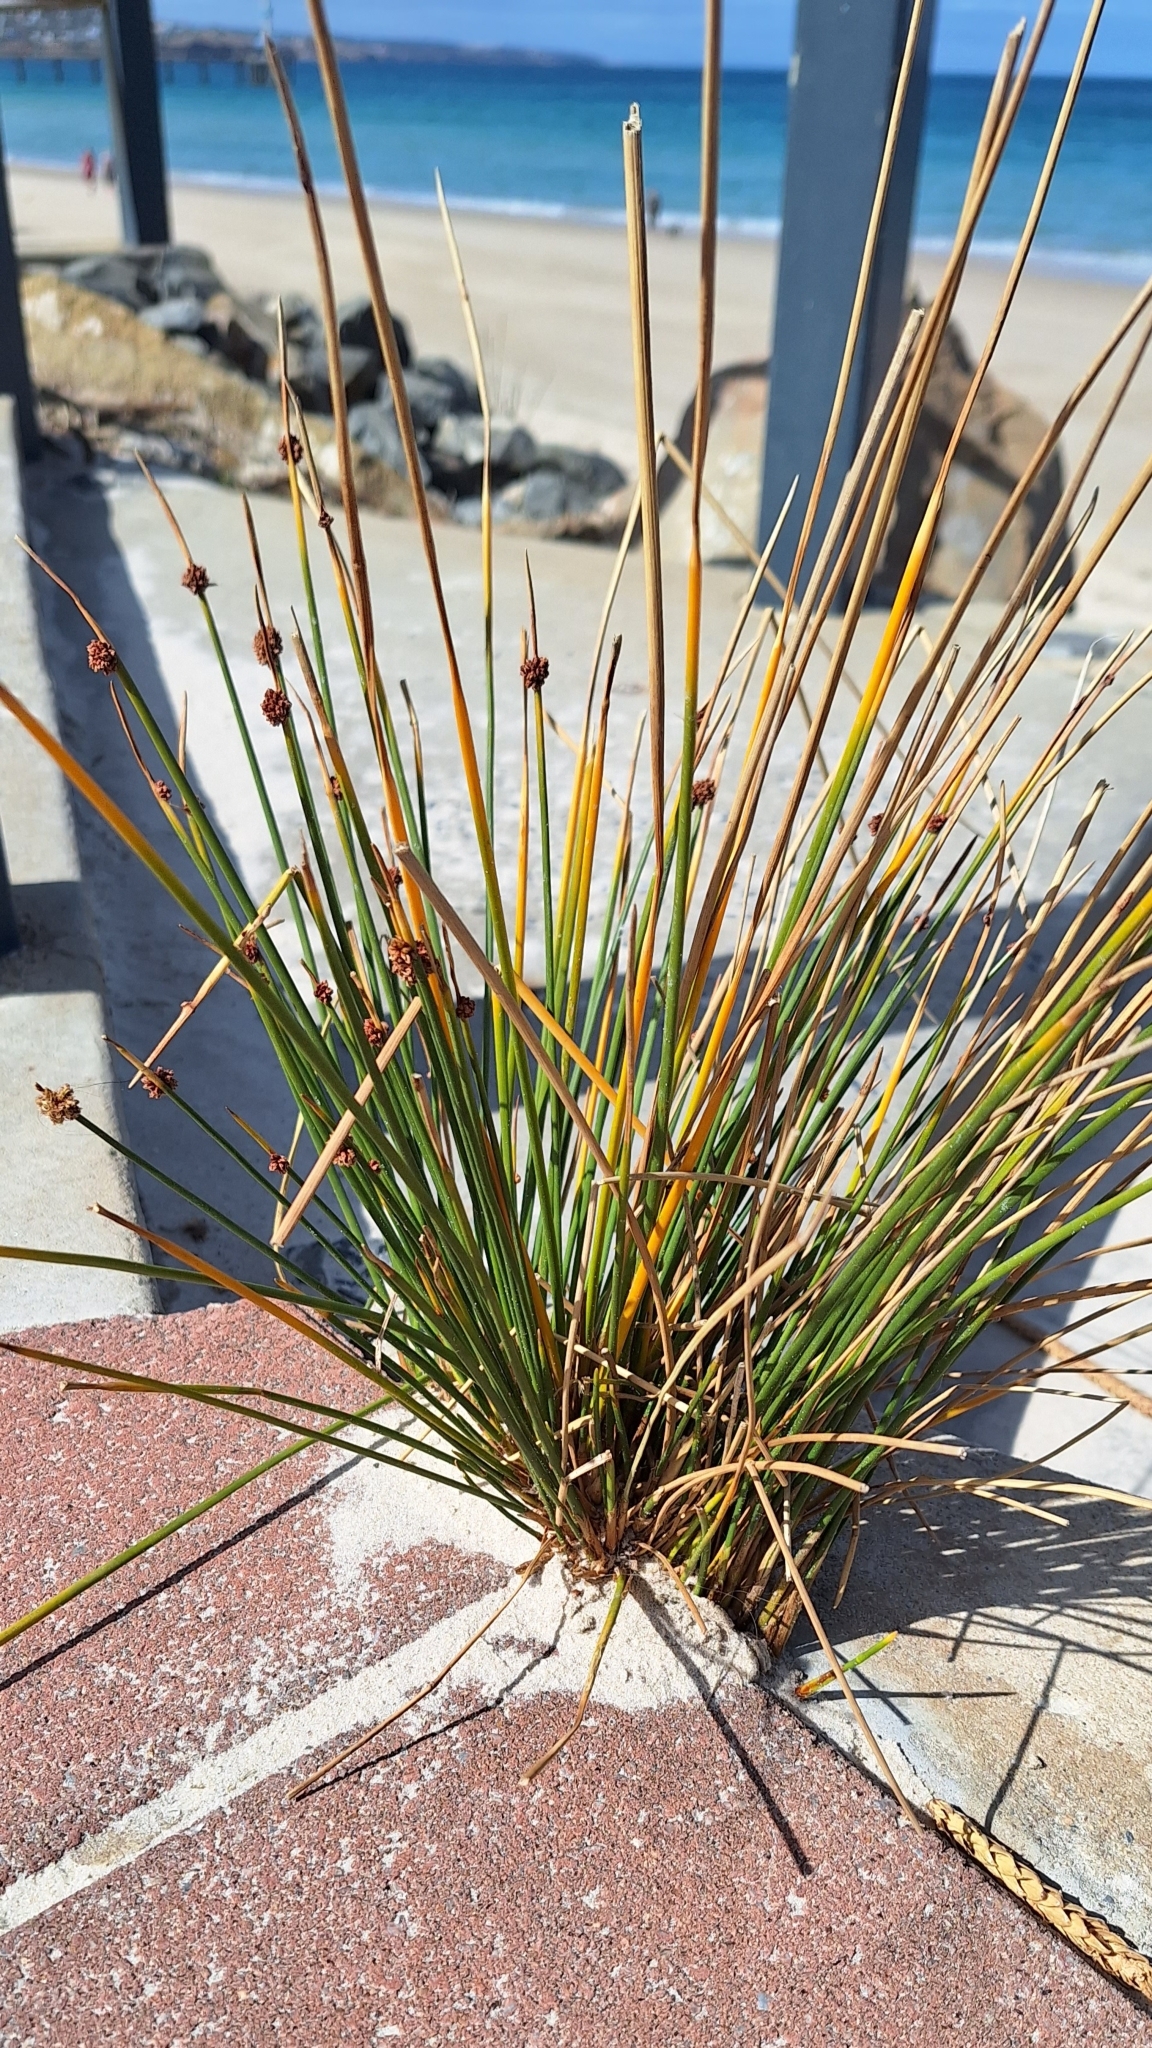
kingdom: Plantae
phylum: Tracheophyta
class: Liliopsida
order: Poales
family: Cyperaceae
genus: Ficinia
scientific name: Ficinia nodosa
